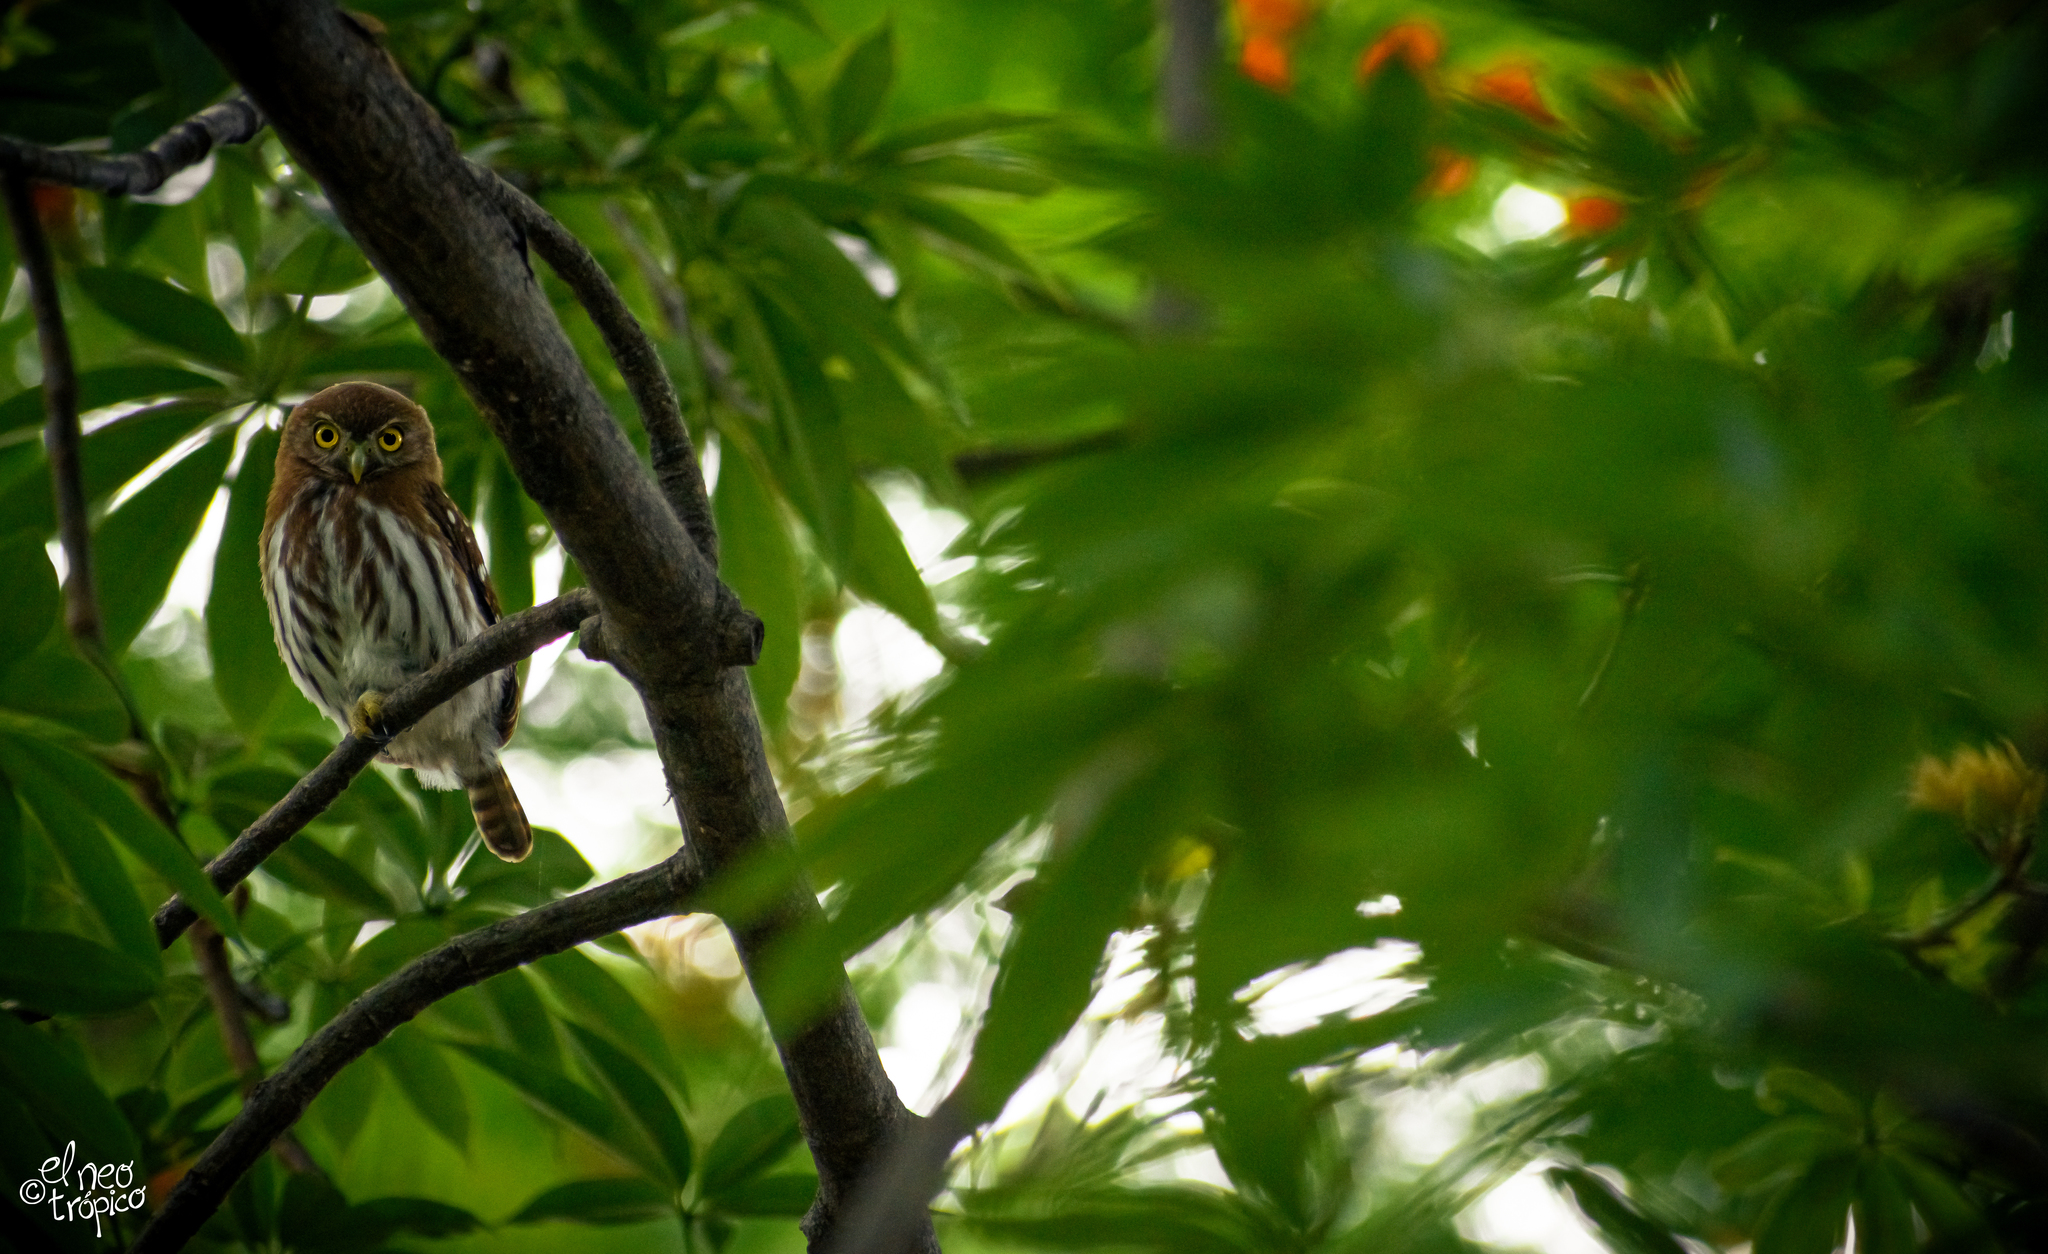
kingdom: Animalia
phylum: Chordata
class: Aves
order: Strigiformes
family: Strigidae
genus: Glaucidium
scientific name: Glaucidium brasilianum
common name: Ferruginous pygmy-owl
